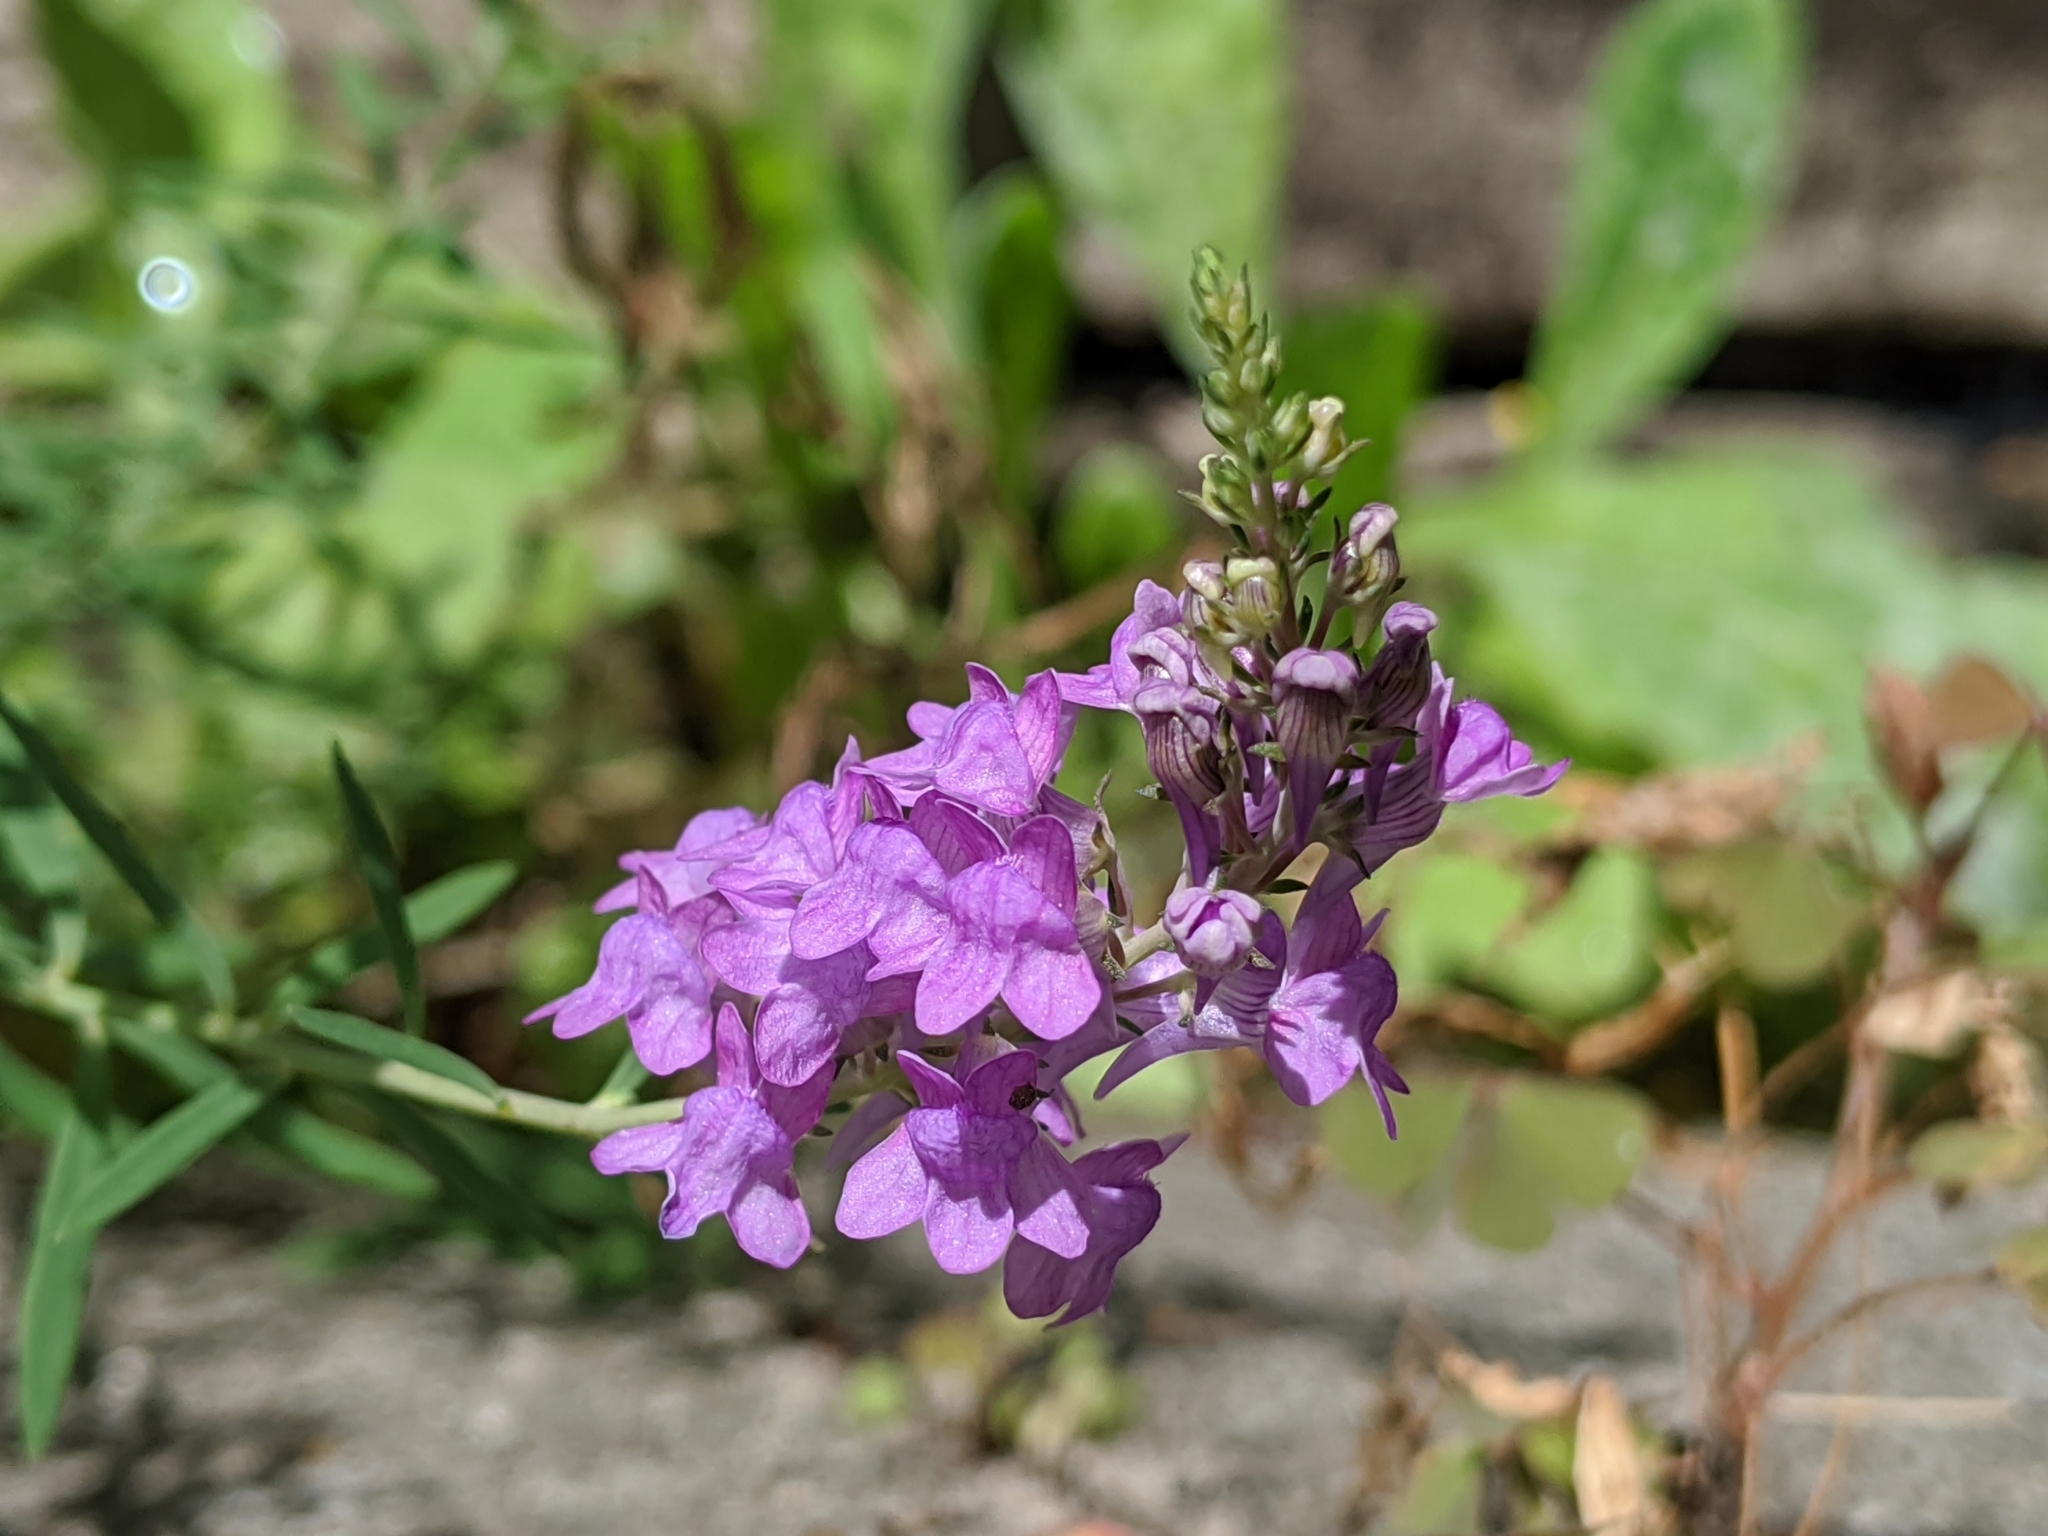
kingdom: Plantae
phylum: Tracheophyta
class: Magnoliopsida
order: Lamiales
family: Plantaginaceae
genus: Linaria
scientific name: Linaria purpurea
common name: Purple toadflax
